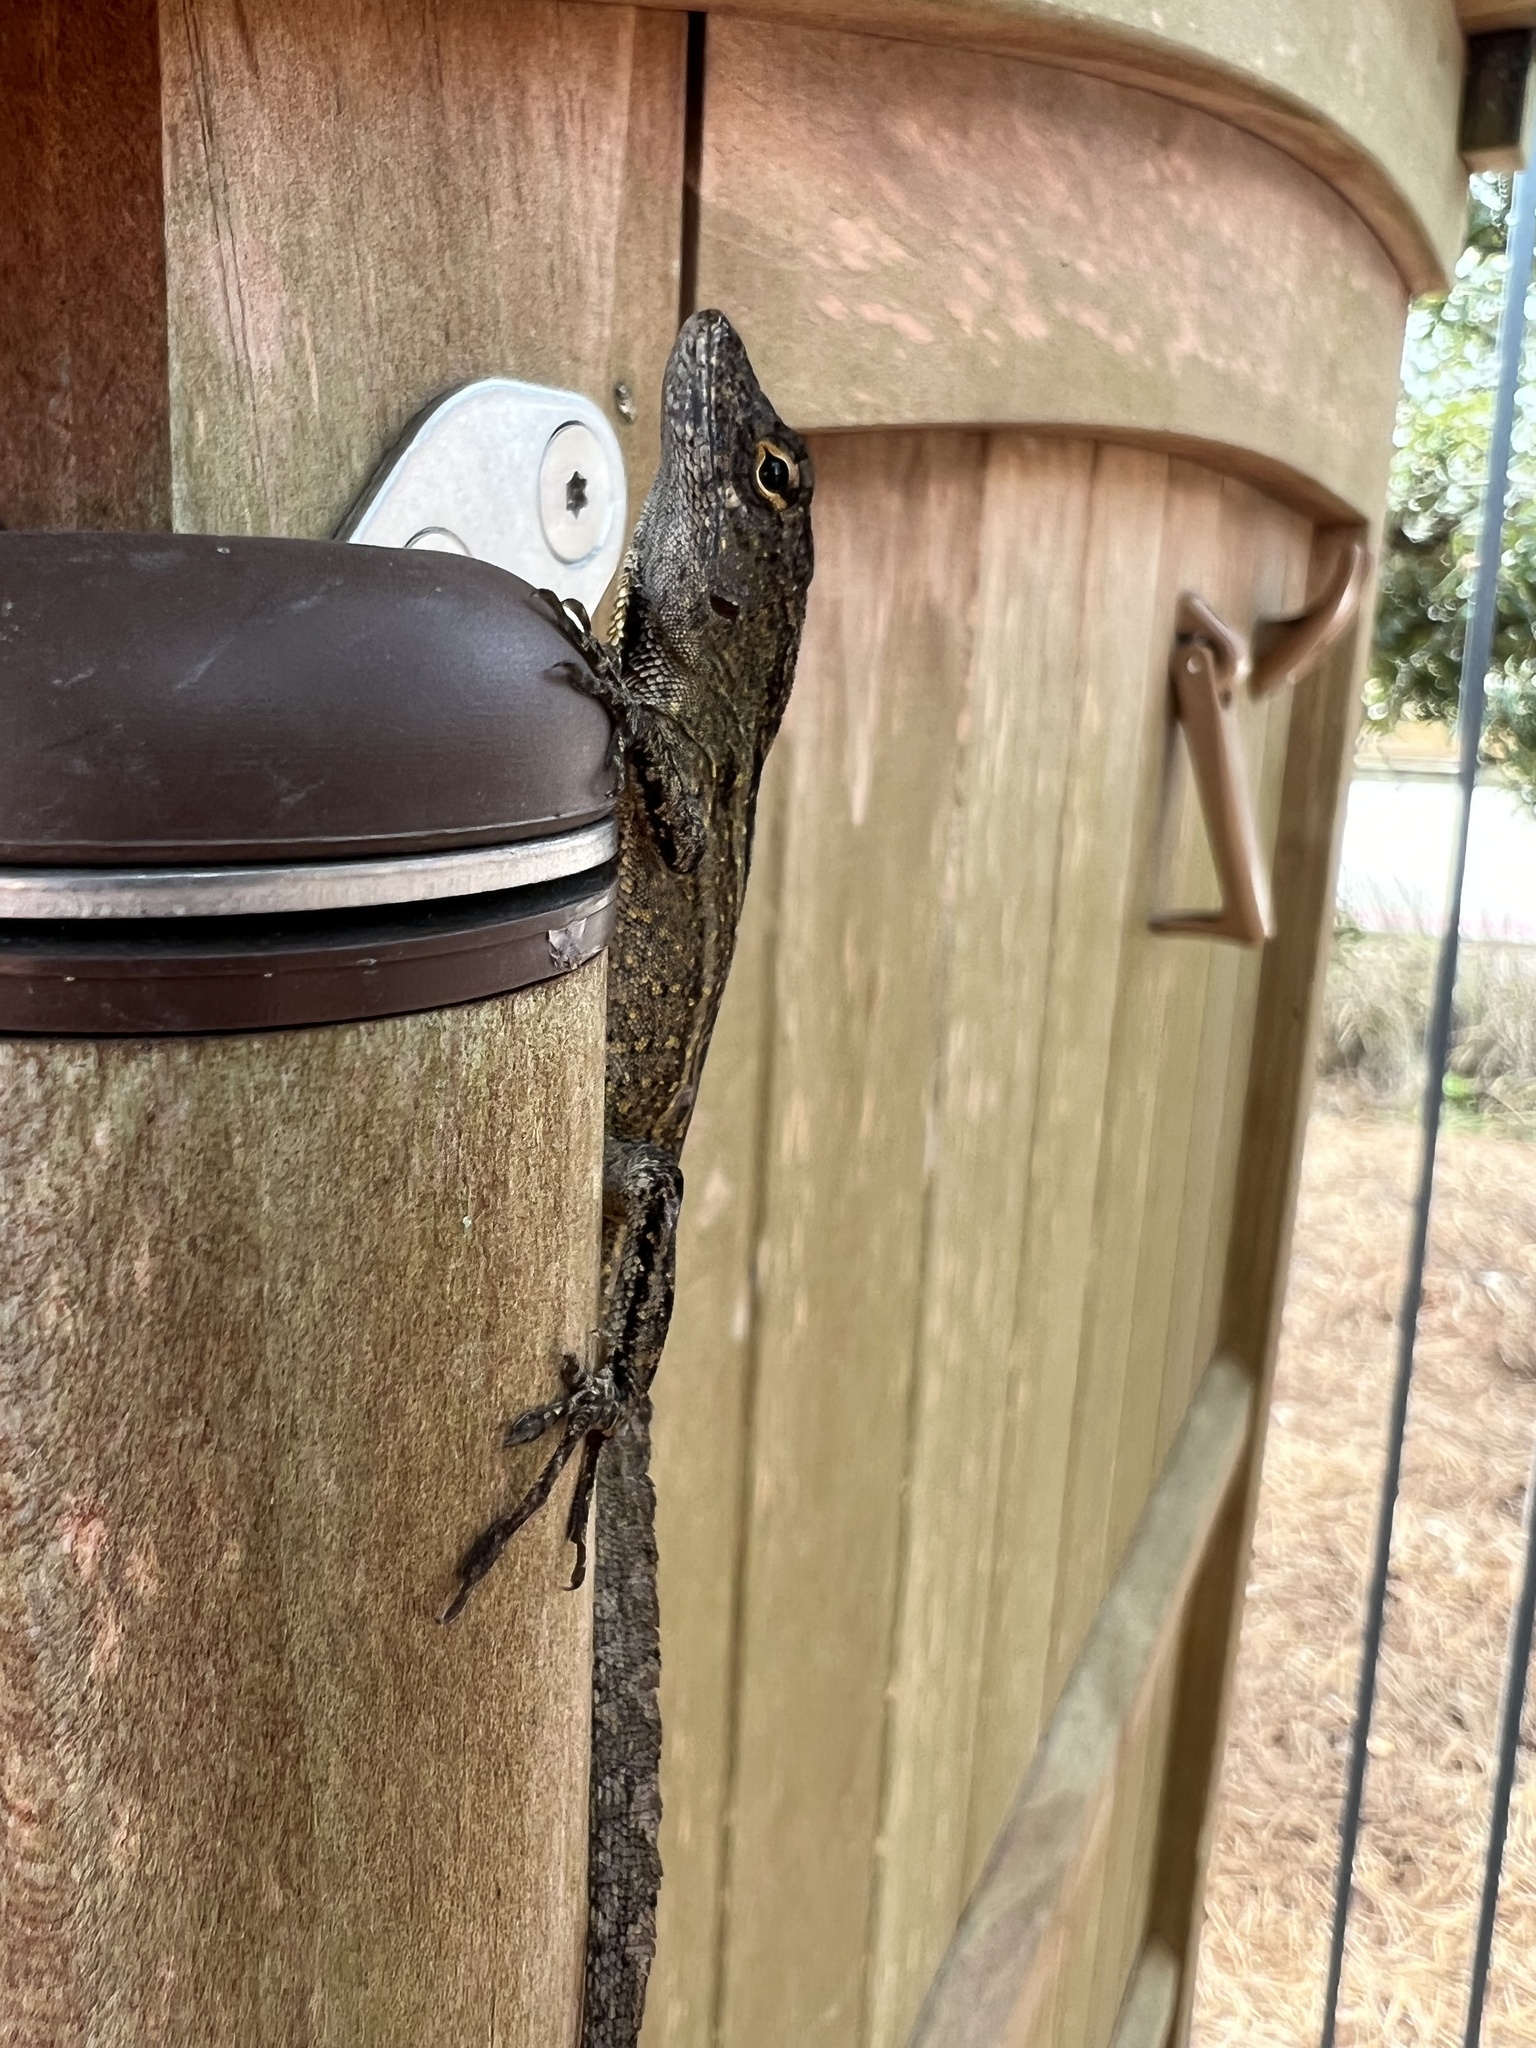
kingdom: Animalia
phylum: Chordata
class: Squamata
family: Dactyloidae
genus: Anolis
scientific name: Anolis sagrei
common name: Brown anole
